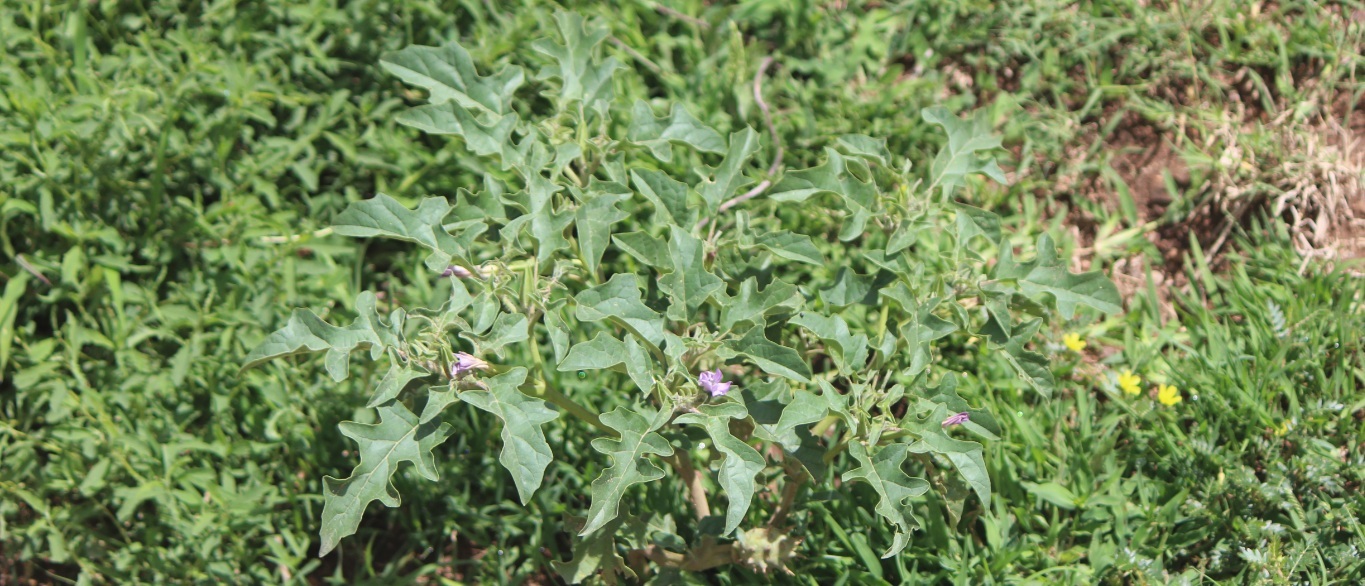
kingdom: Plantae
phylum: Tracheophyta
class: Magnoliopsida
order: Solanales
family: Solanaceae
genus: Datura
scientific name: Datura quercifolia
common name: Oak-leaf datura
